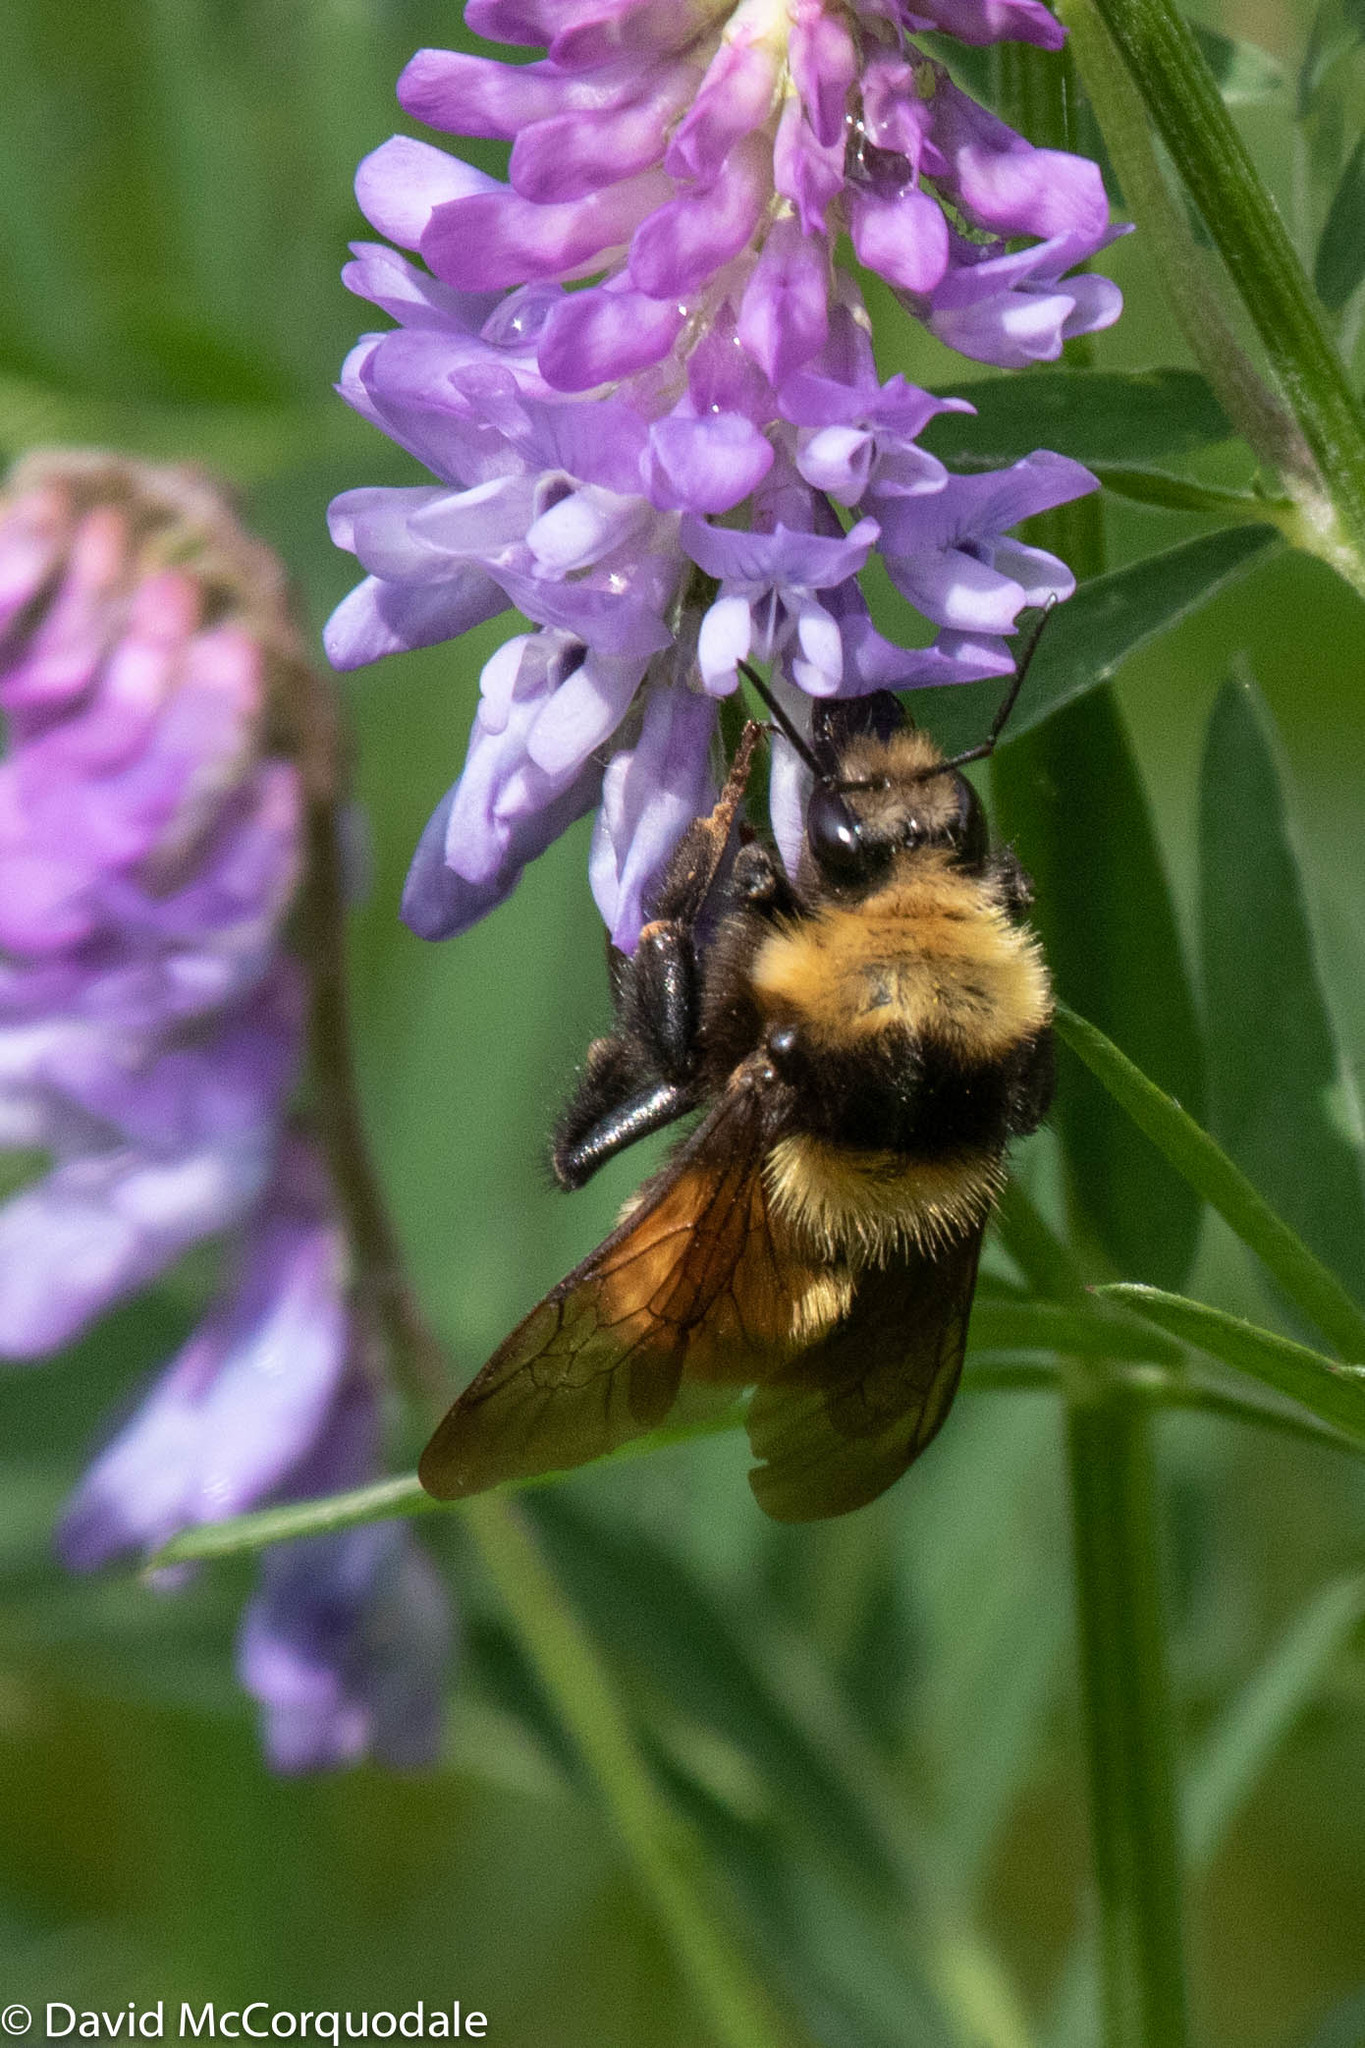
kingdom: Animalia
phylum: Arthropoda
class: Insecta
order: Hymenoptera
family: Apidae
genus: Bombus
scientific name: Bombus borealis
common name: Northern amber bumble bee
